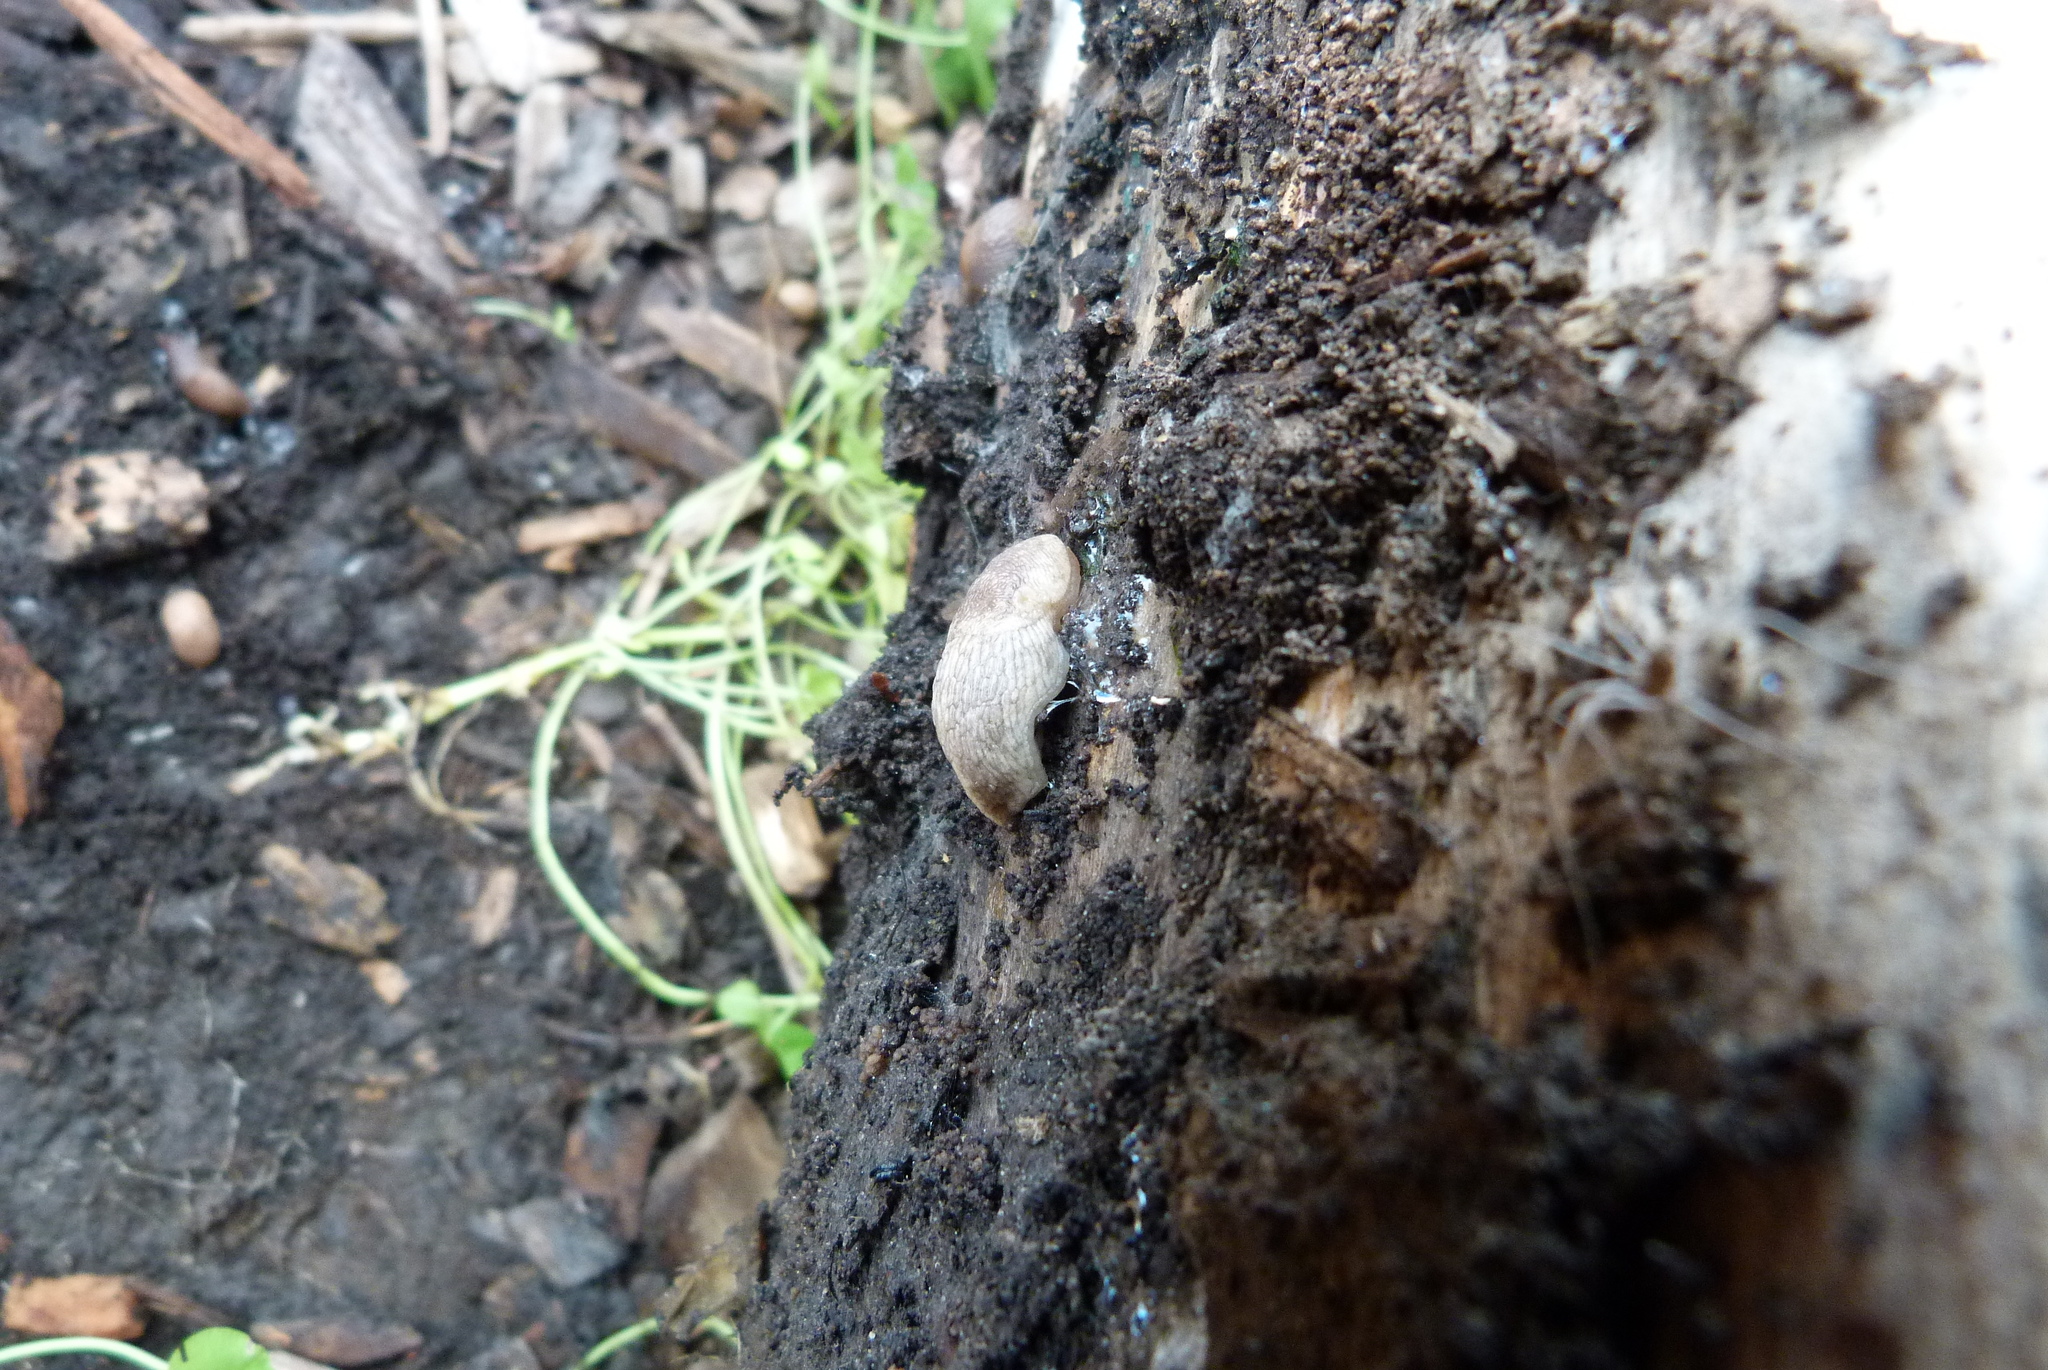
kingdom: Animalia
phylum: Mollusca
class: Gastropoda
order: Stylommatophora
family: Agriolimacidae
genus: Deroceras
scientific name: Deroceras reticulatum
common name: Gray field slug
